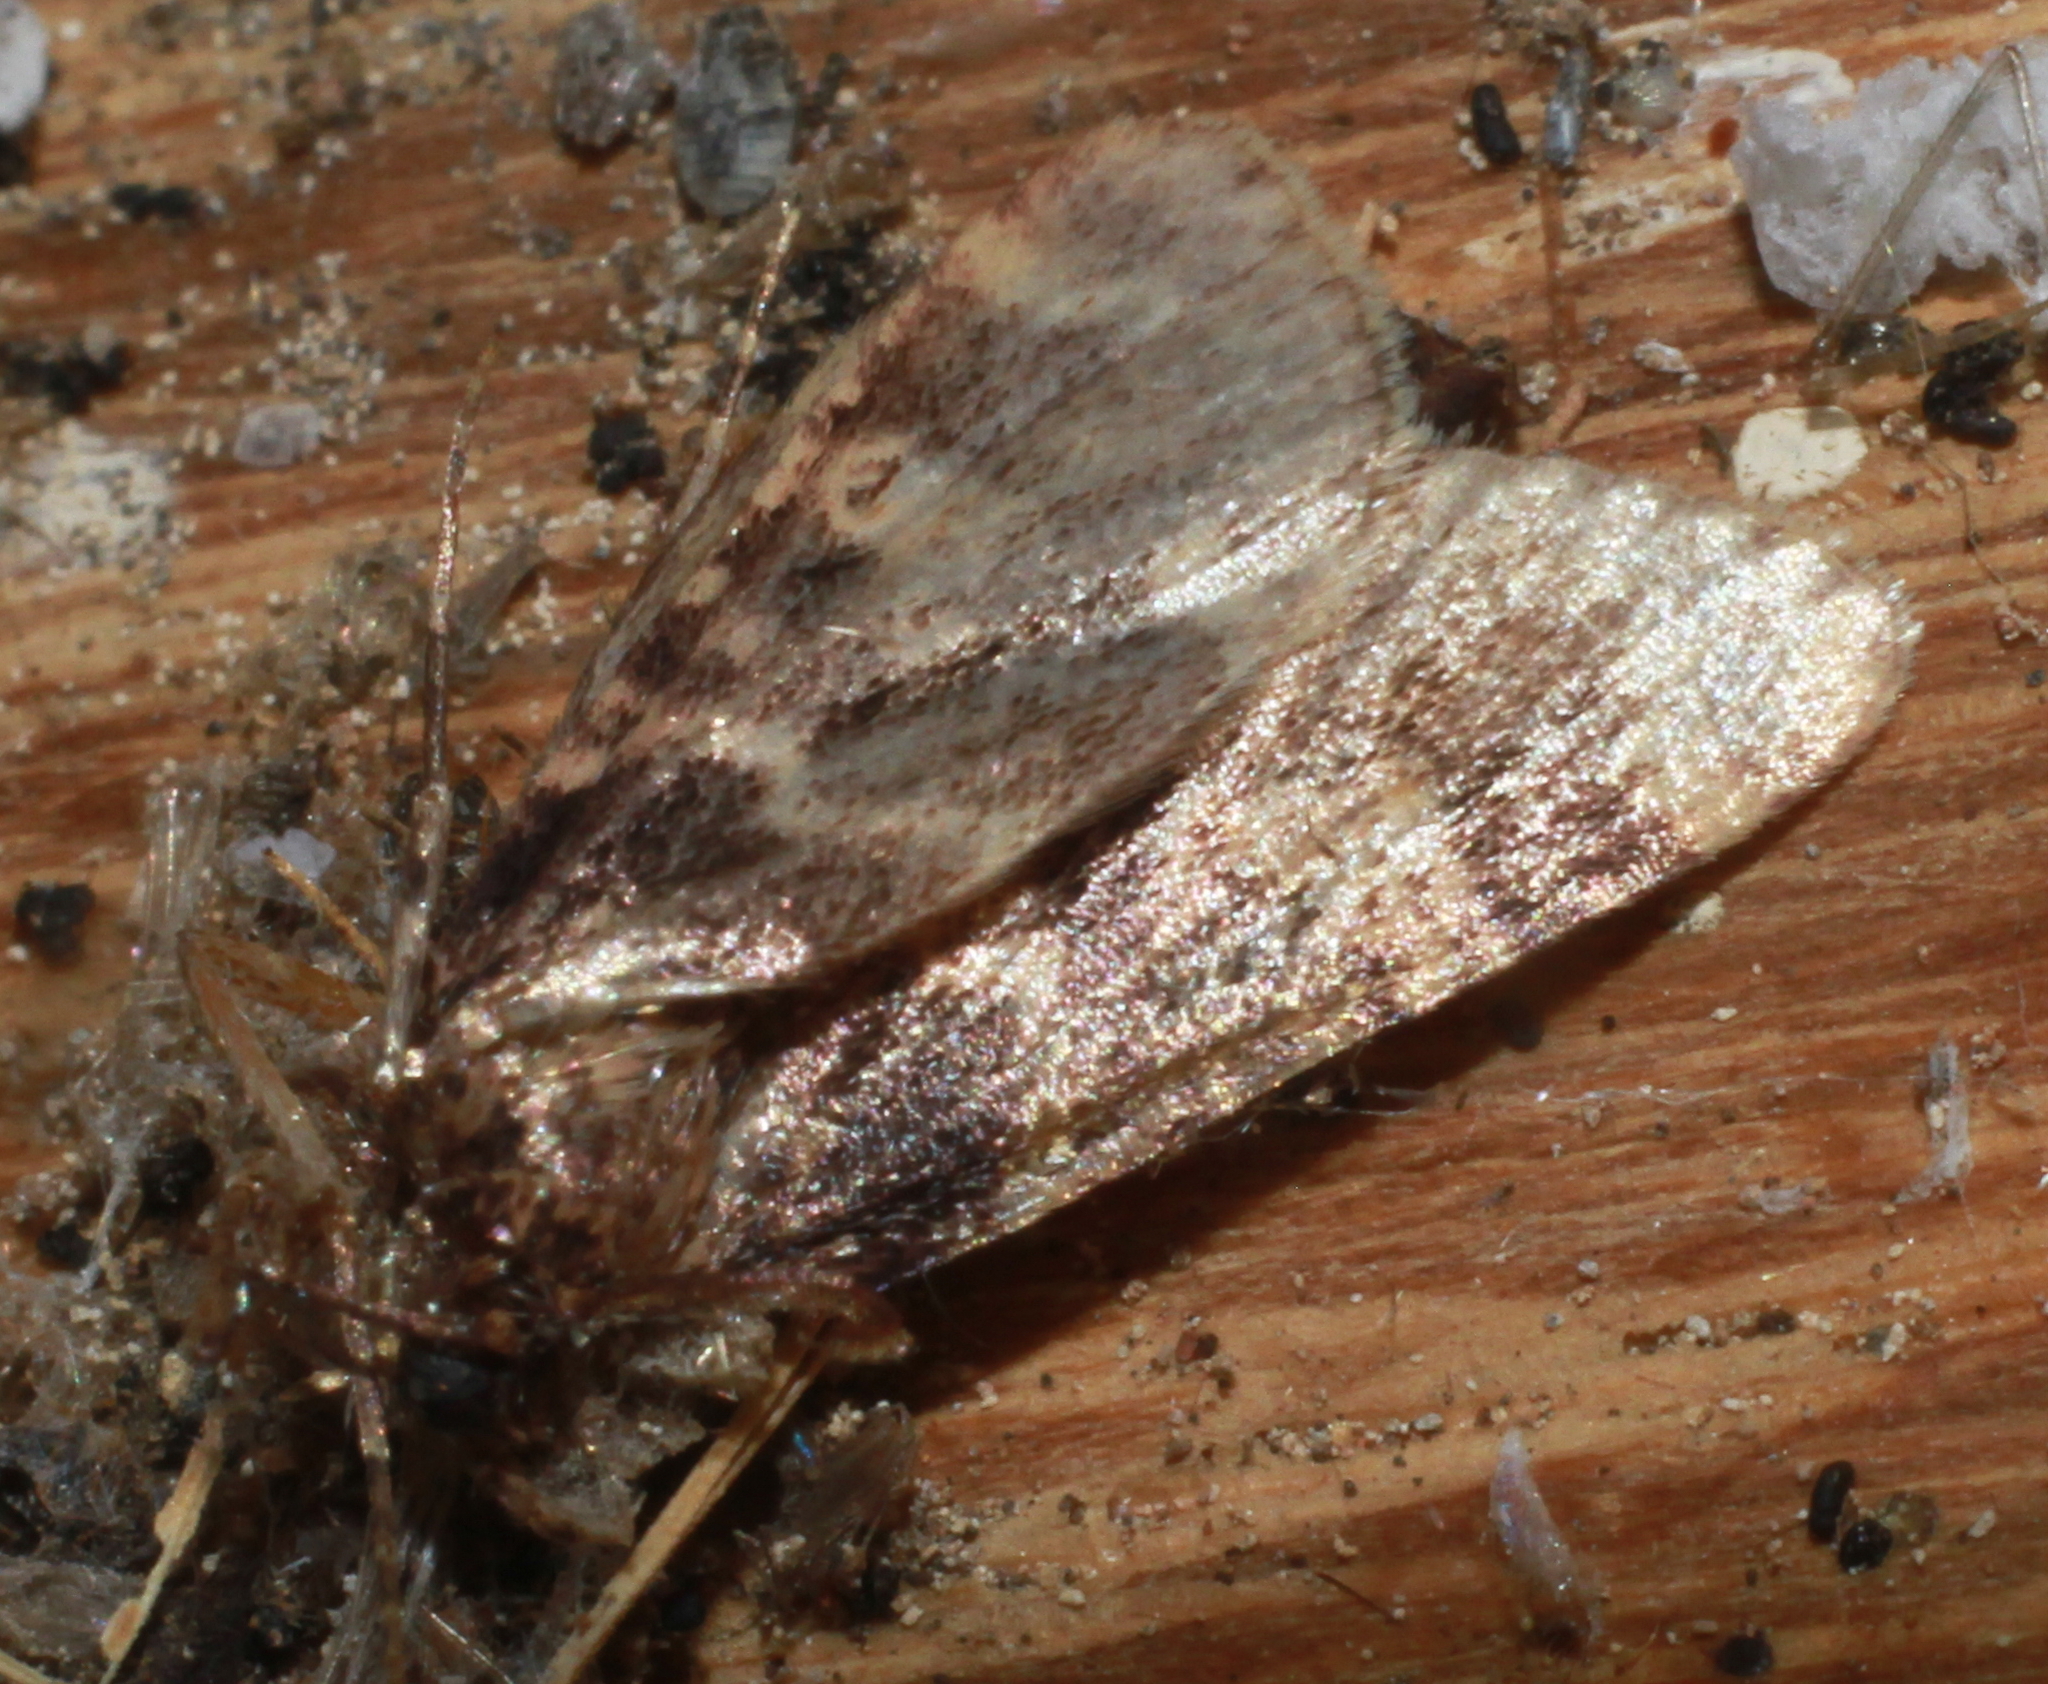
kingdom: Animalia
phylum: Arthropoda
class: Insecta
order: Lepidoptera
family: Pyralidae
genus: Aglossa
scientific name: Aglossa caprealis
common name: Small tabby
